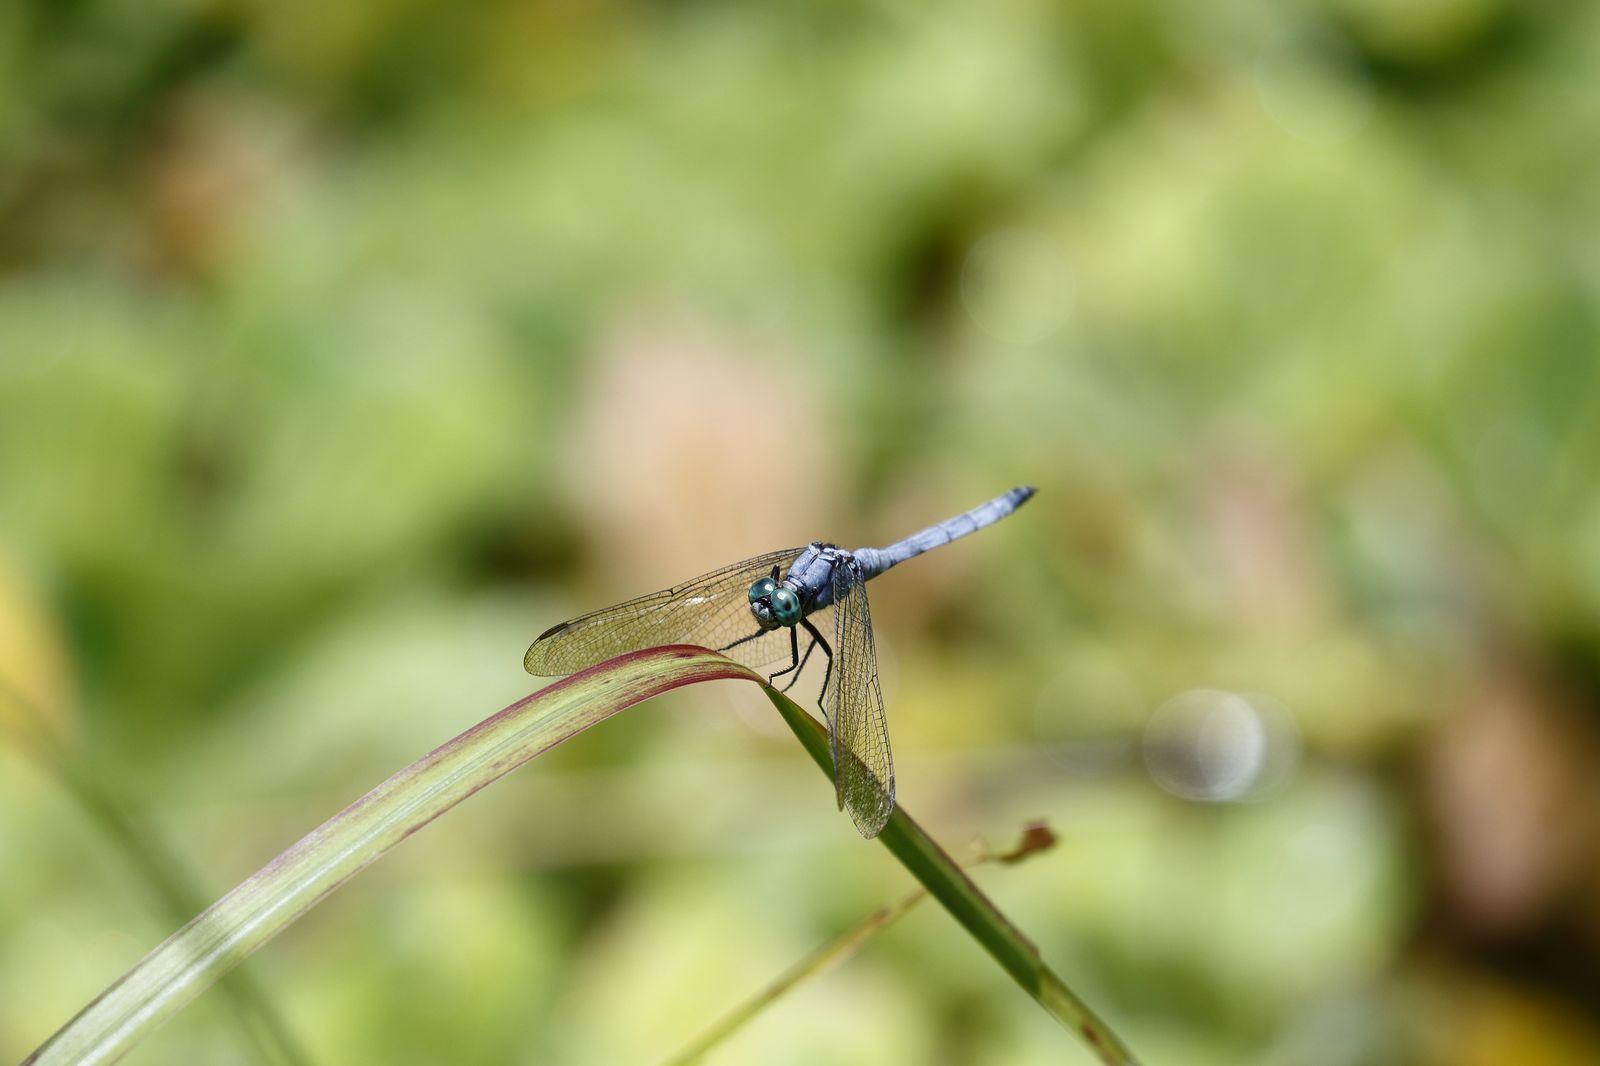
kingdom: Animalia
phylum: Arthropoda
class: Insecta
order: Odonata
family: Libellulidae
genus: Orthetrum
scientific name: Orthetrum luzonicum
